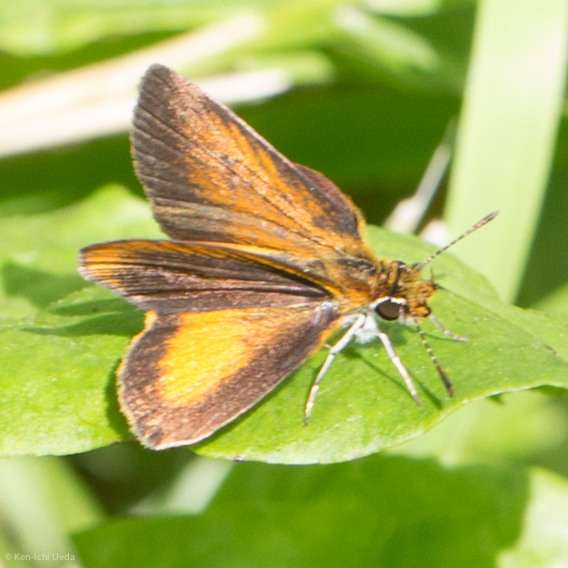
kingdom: Animalia
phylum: Arthropoda
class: Insecta
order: Lepidoptera
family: Hesperiidae
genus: Ancyloxypha
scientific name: Ancyloxypha numitor
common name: Least skipper
